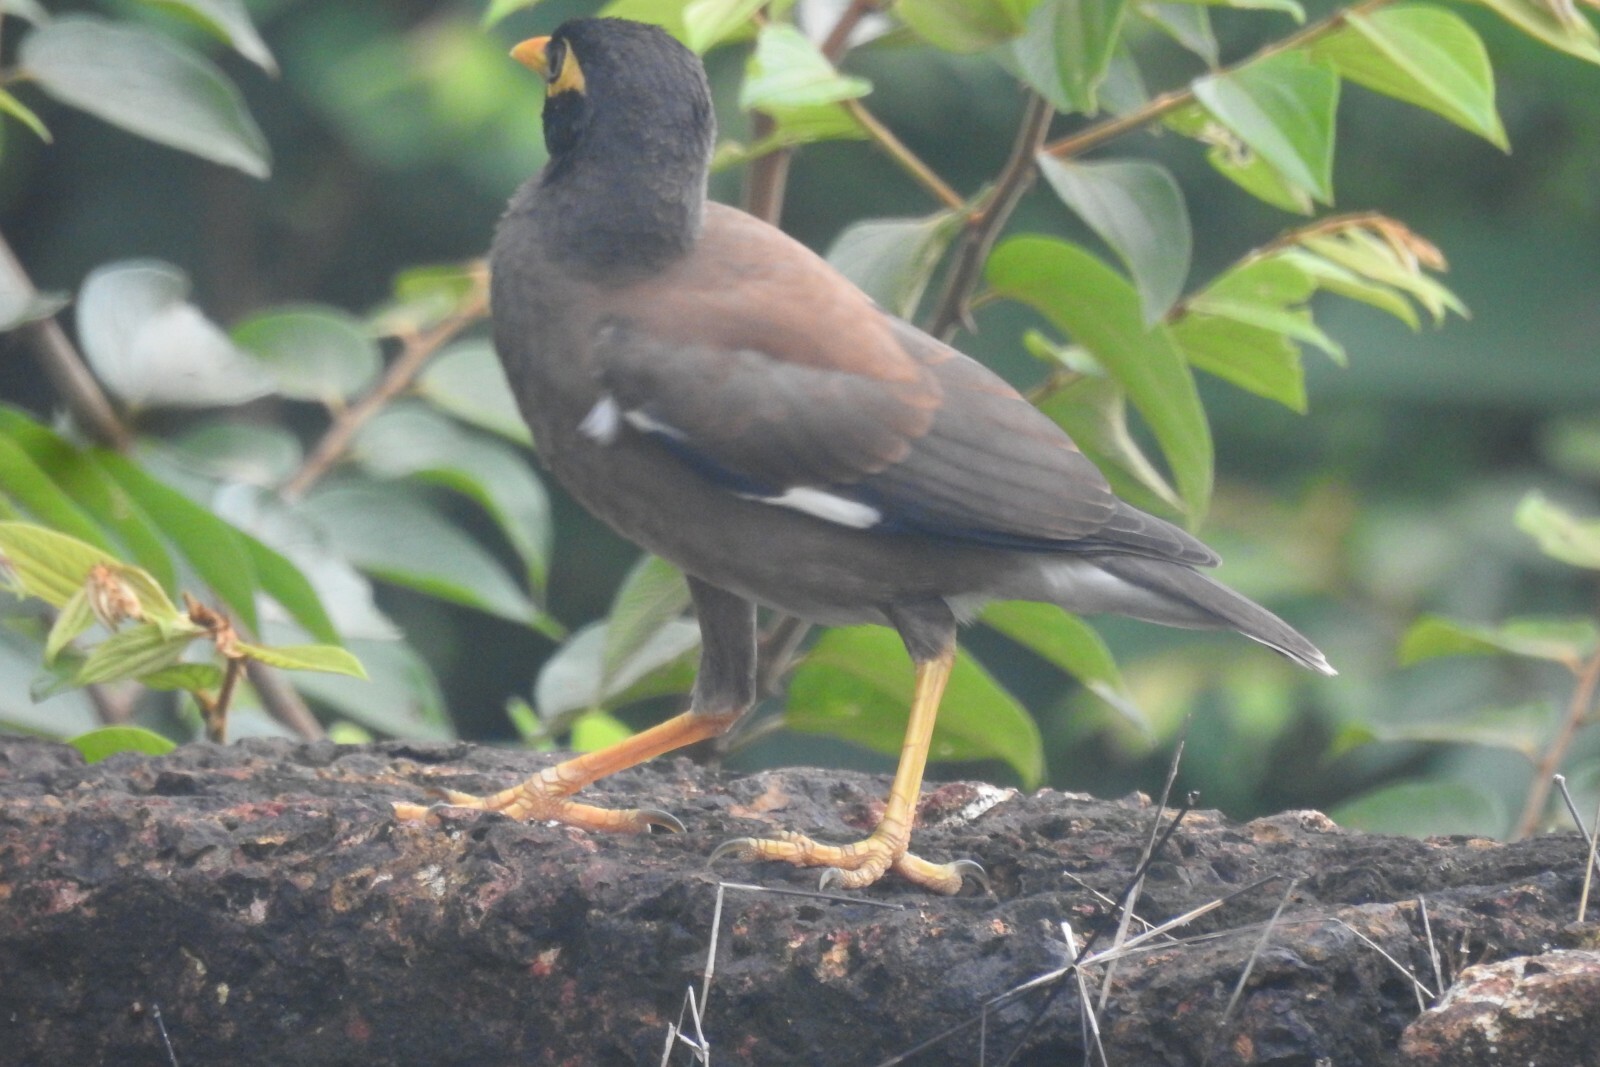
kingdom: Animalia
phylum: Chordata
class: Aves
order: Passeriformes
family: Sturnidae
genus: Acridotheres
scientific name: Acridotheres tristis
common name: Common myna
